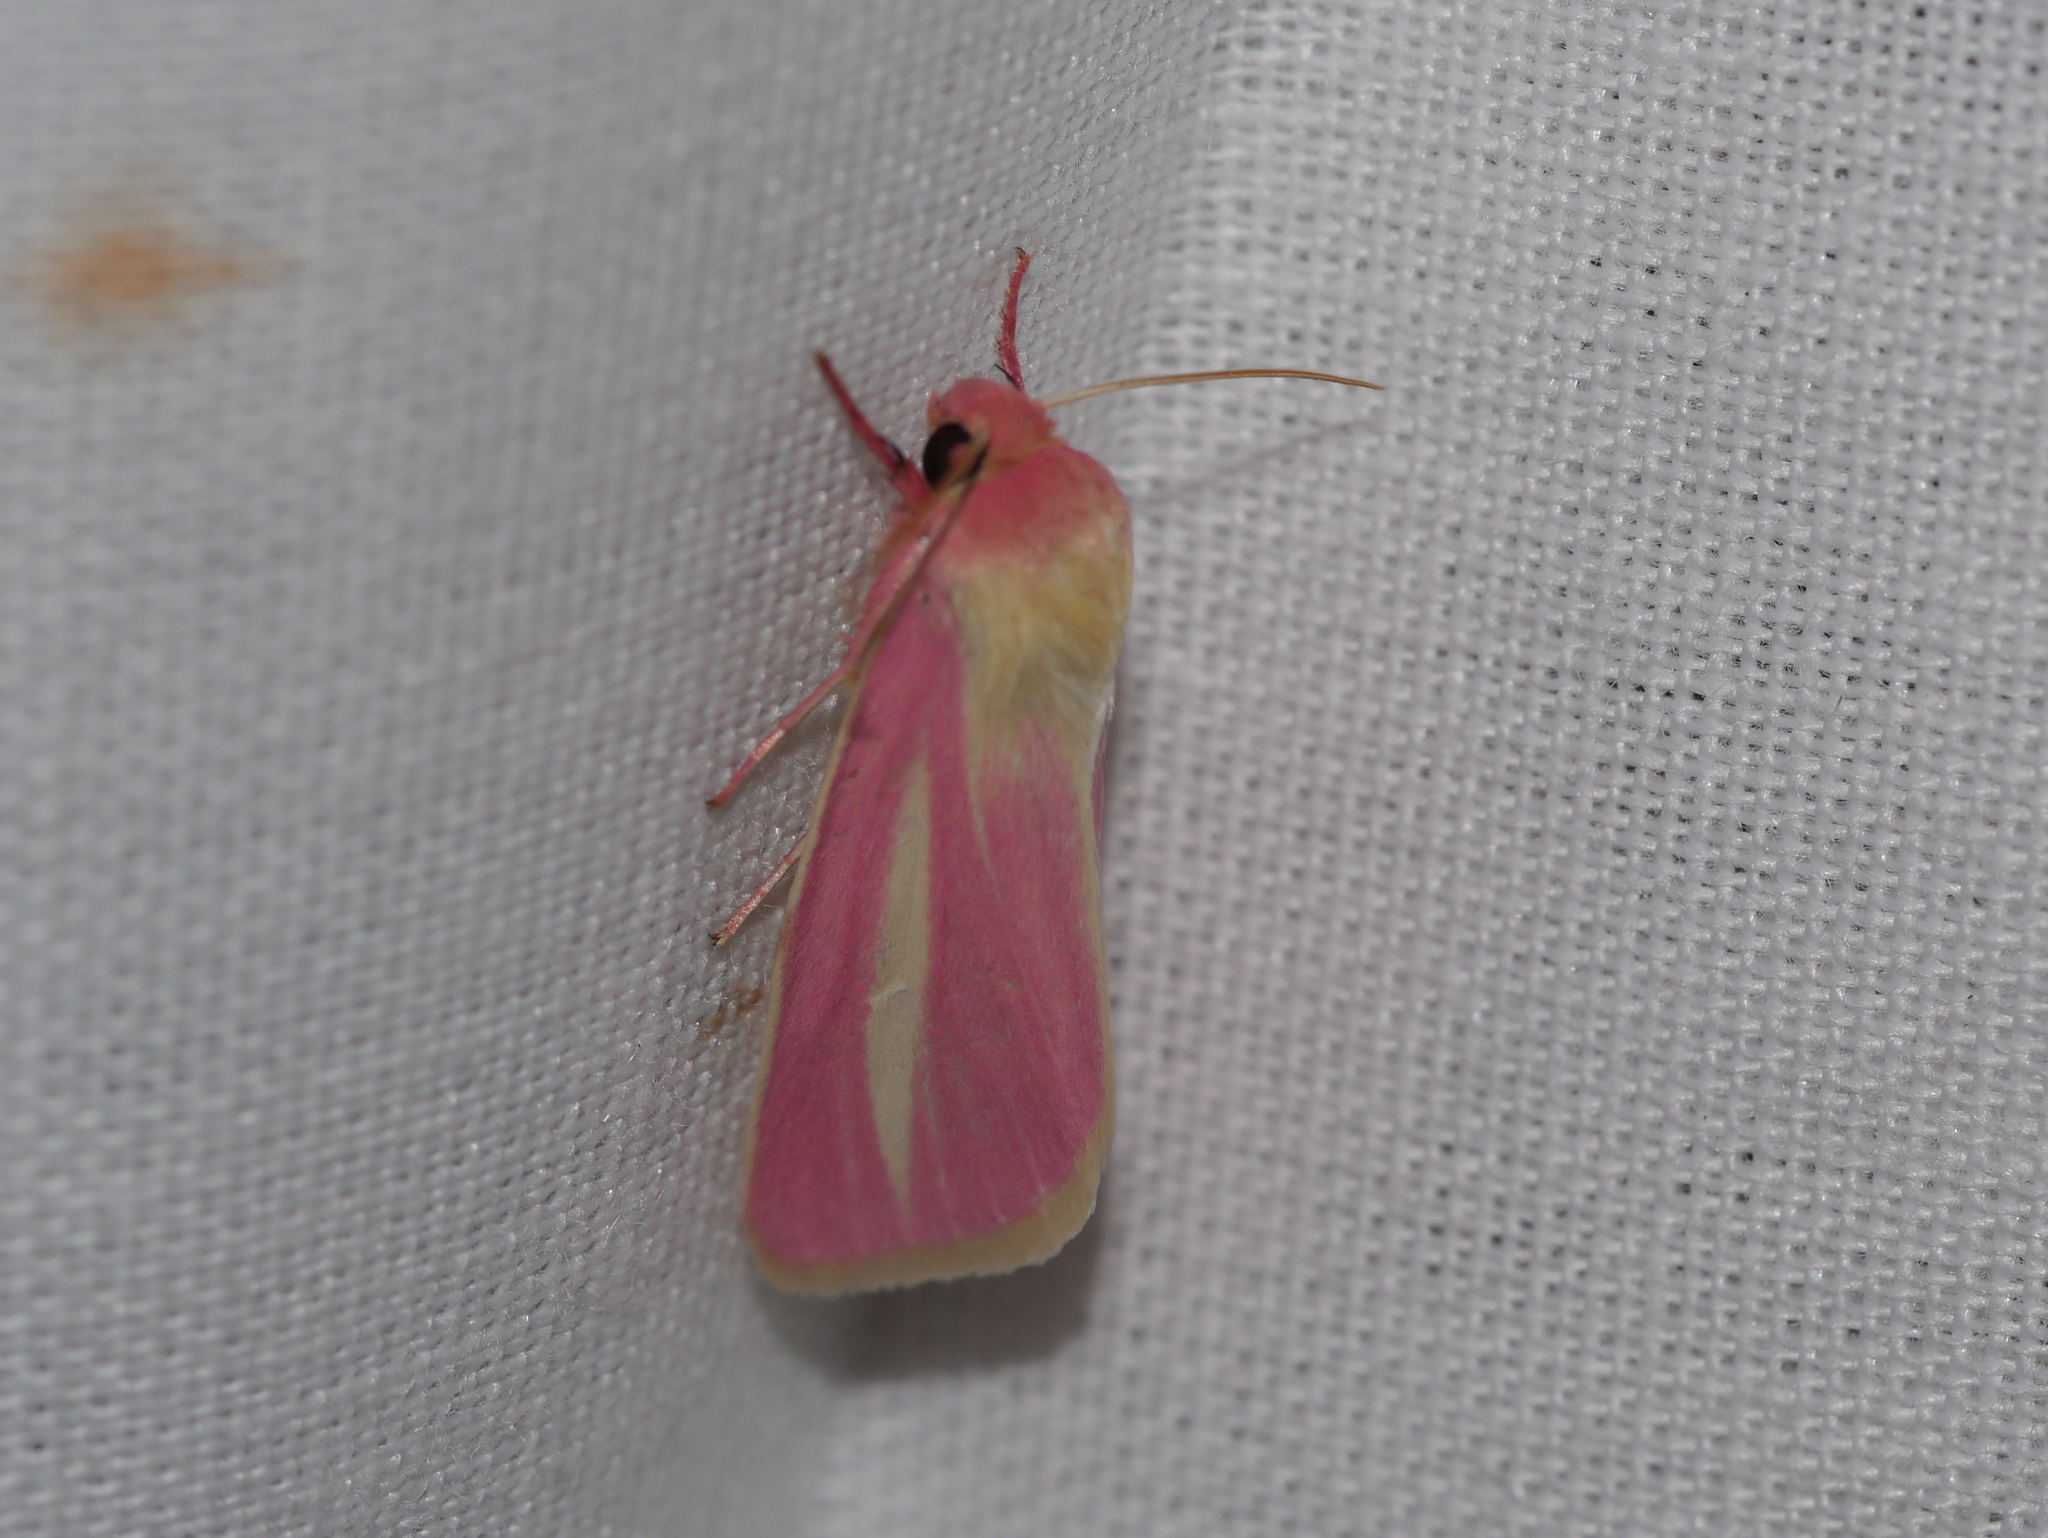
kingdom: Animalia
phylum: Arthropoda
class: Insecta
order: Lepidoptera
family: Noctuidae
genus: Heliocheilus
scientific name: Heliocheilus julia
